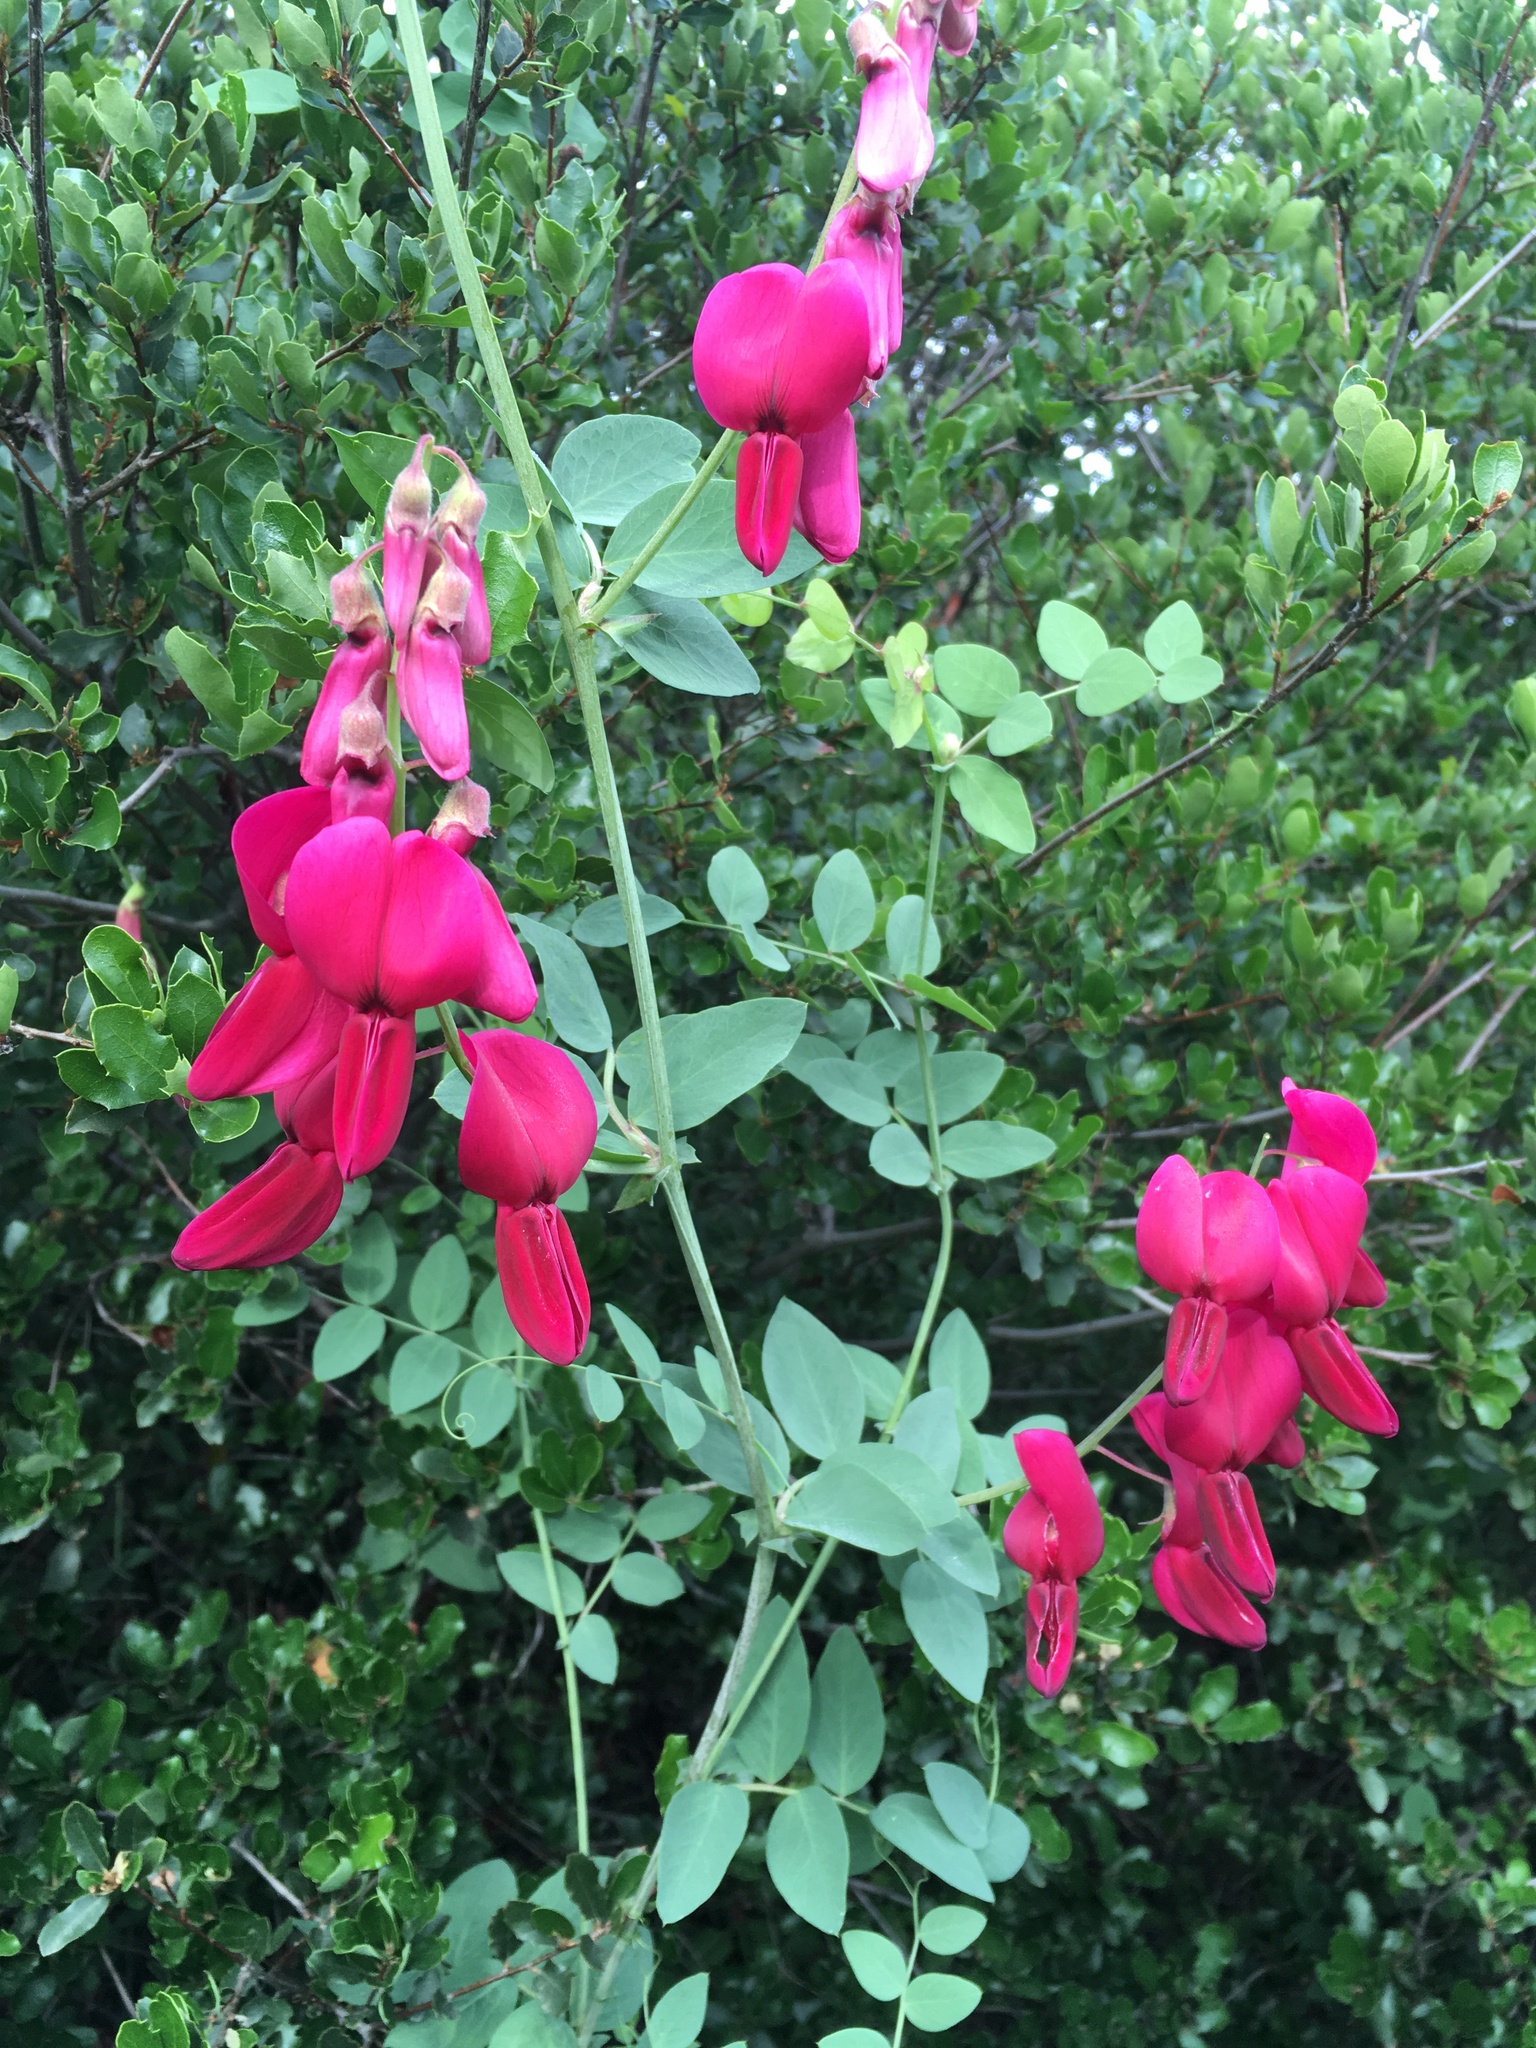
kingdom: Plantae
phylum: Tracheophyta
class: Magnoliopsida
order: Fabales
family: Fabaceae
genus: Lathyrus
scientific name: Lathyrus splendens
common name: Campo-pea
